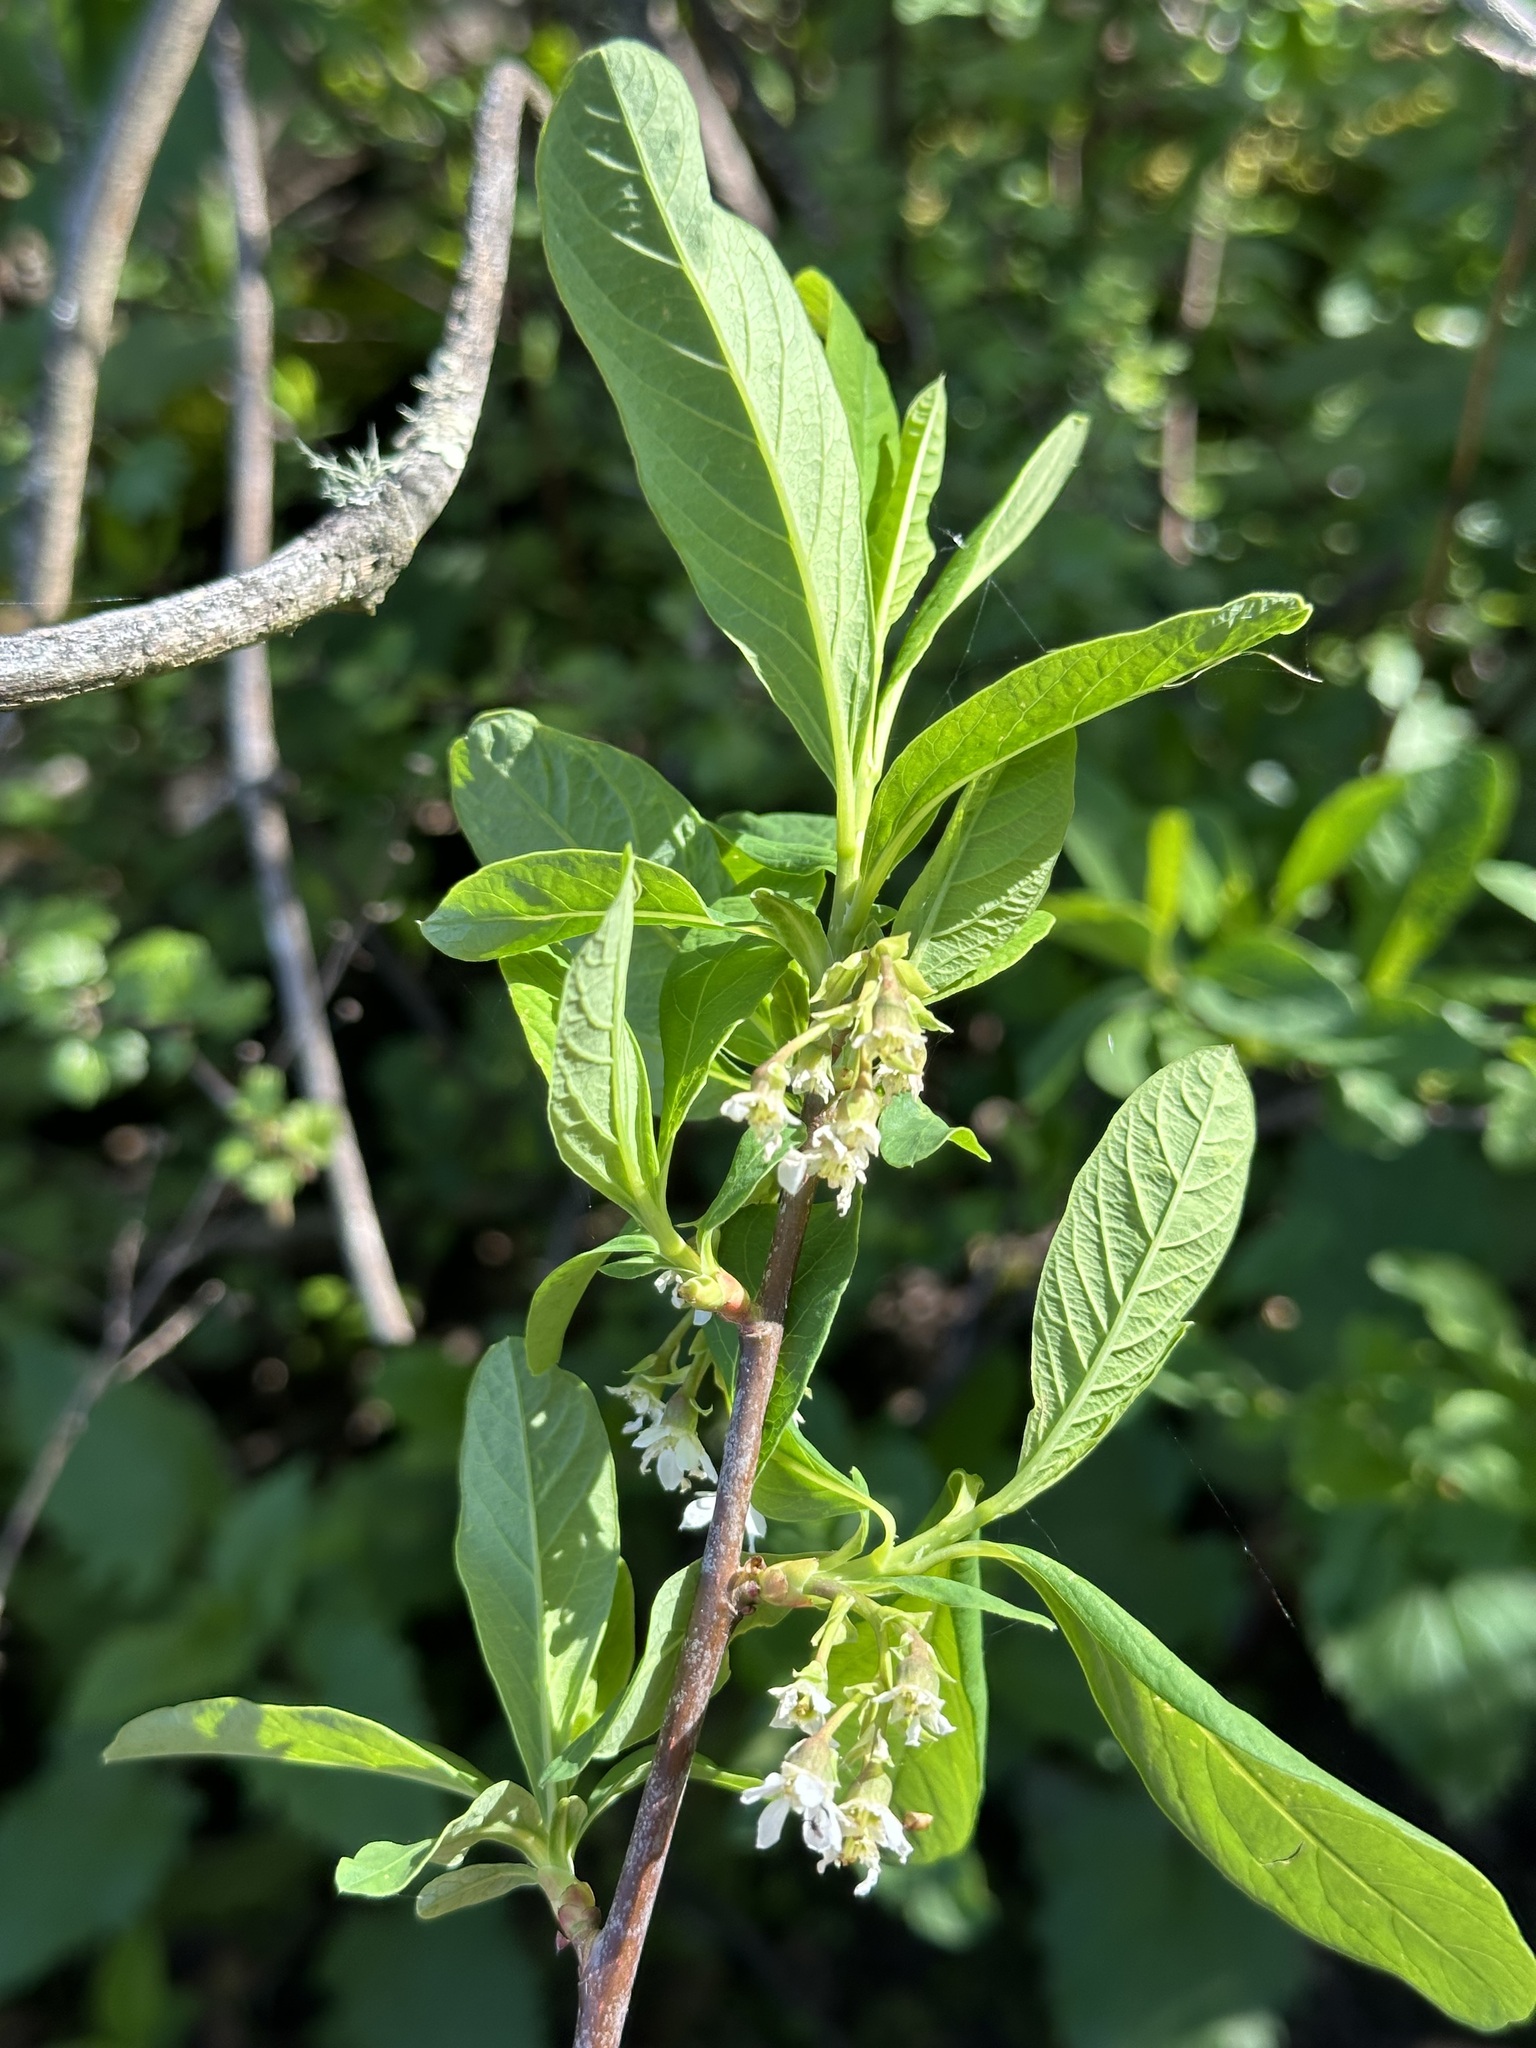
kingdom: Plantae
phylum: Tracheophyta
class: Magnoliopsida
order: Rosales
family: Rosaceae
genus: Oemleria
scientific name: Oemleria cerasiformis
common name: Osoberry
